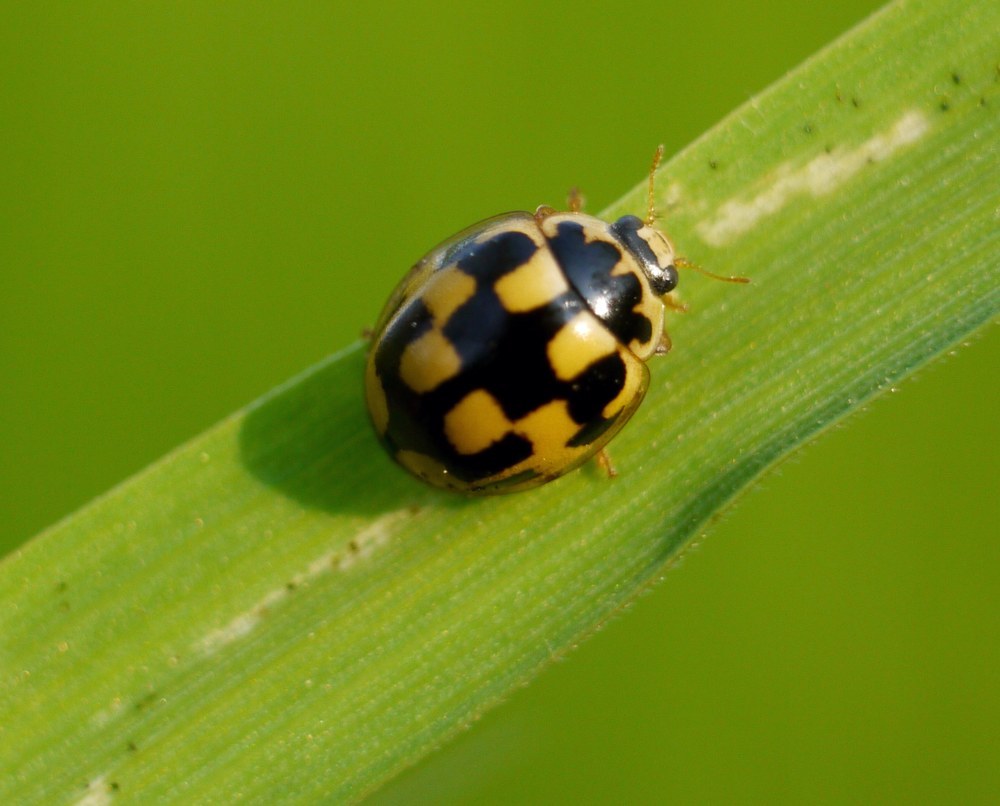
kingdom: Animalia
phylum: Arthropoda
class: Insecta
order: Coleoptera
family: Coccinellidae
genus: Propylaea
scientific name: Propylaea quatuordecimpunctata
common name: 14-spotted ladybird beetle
